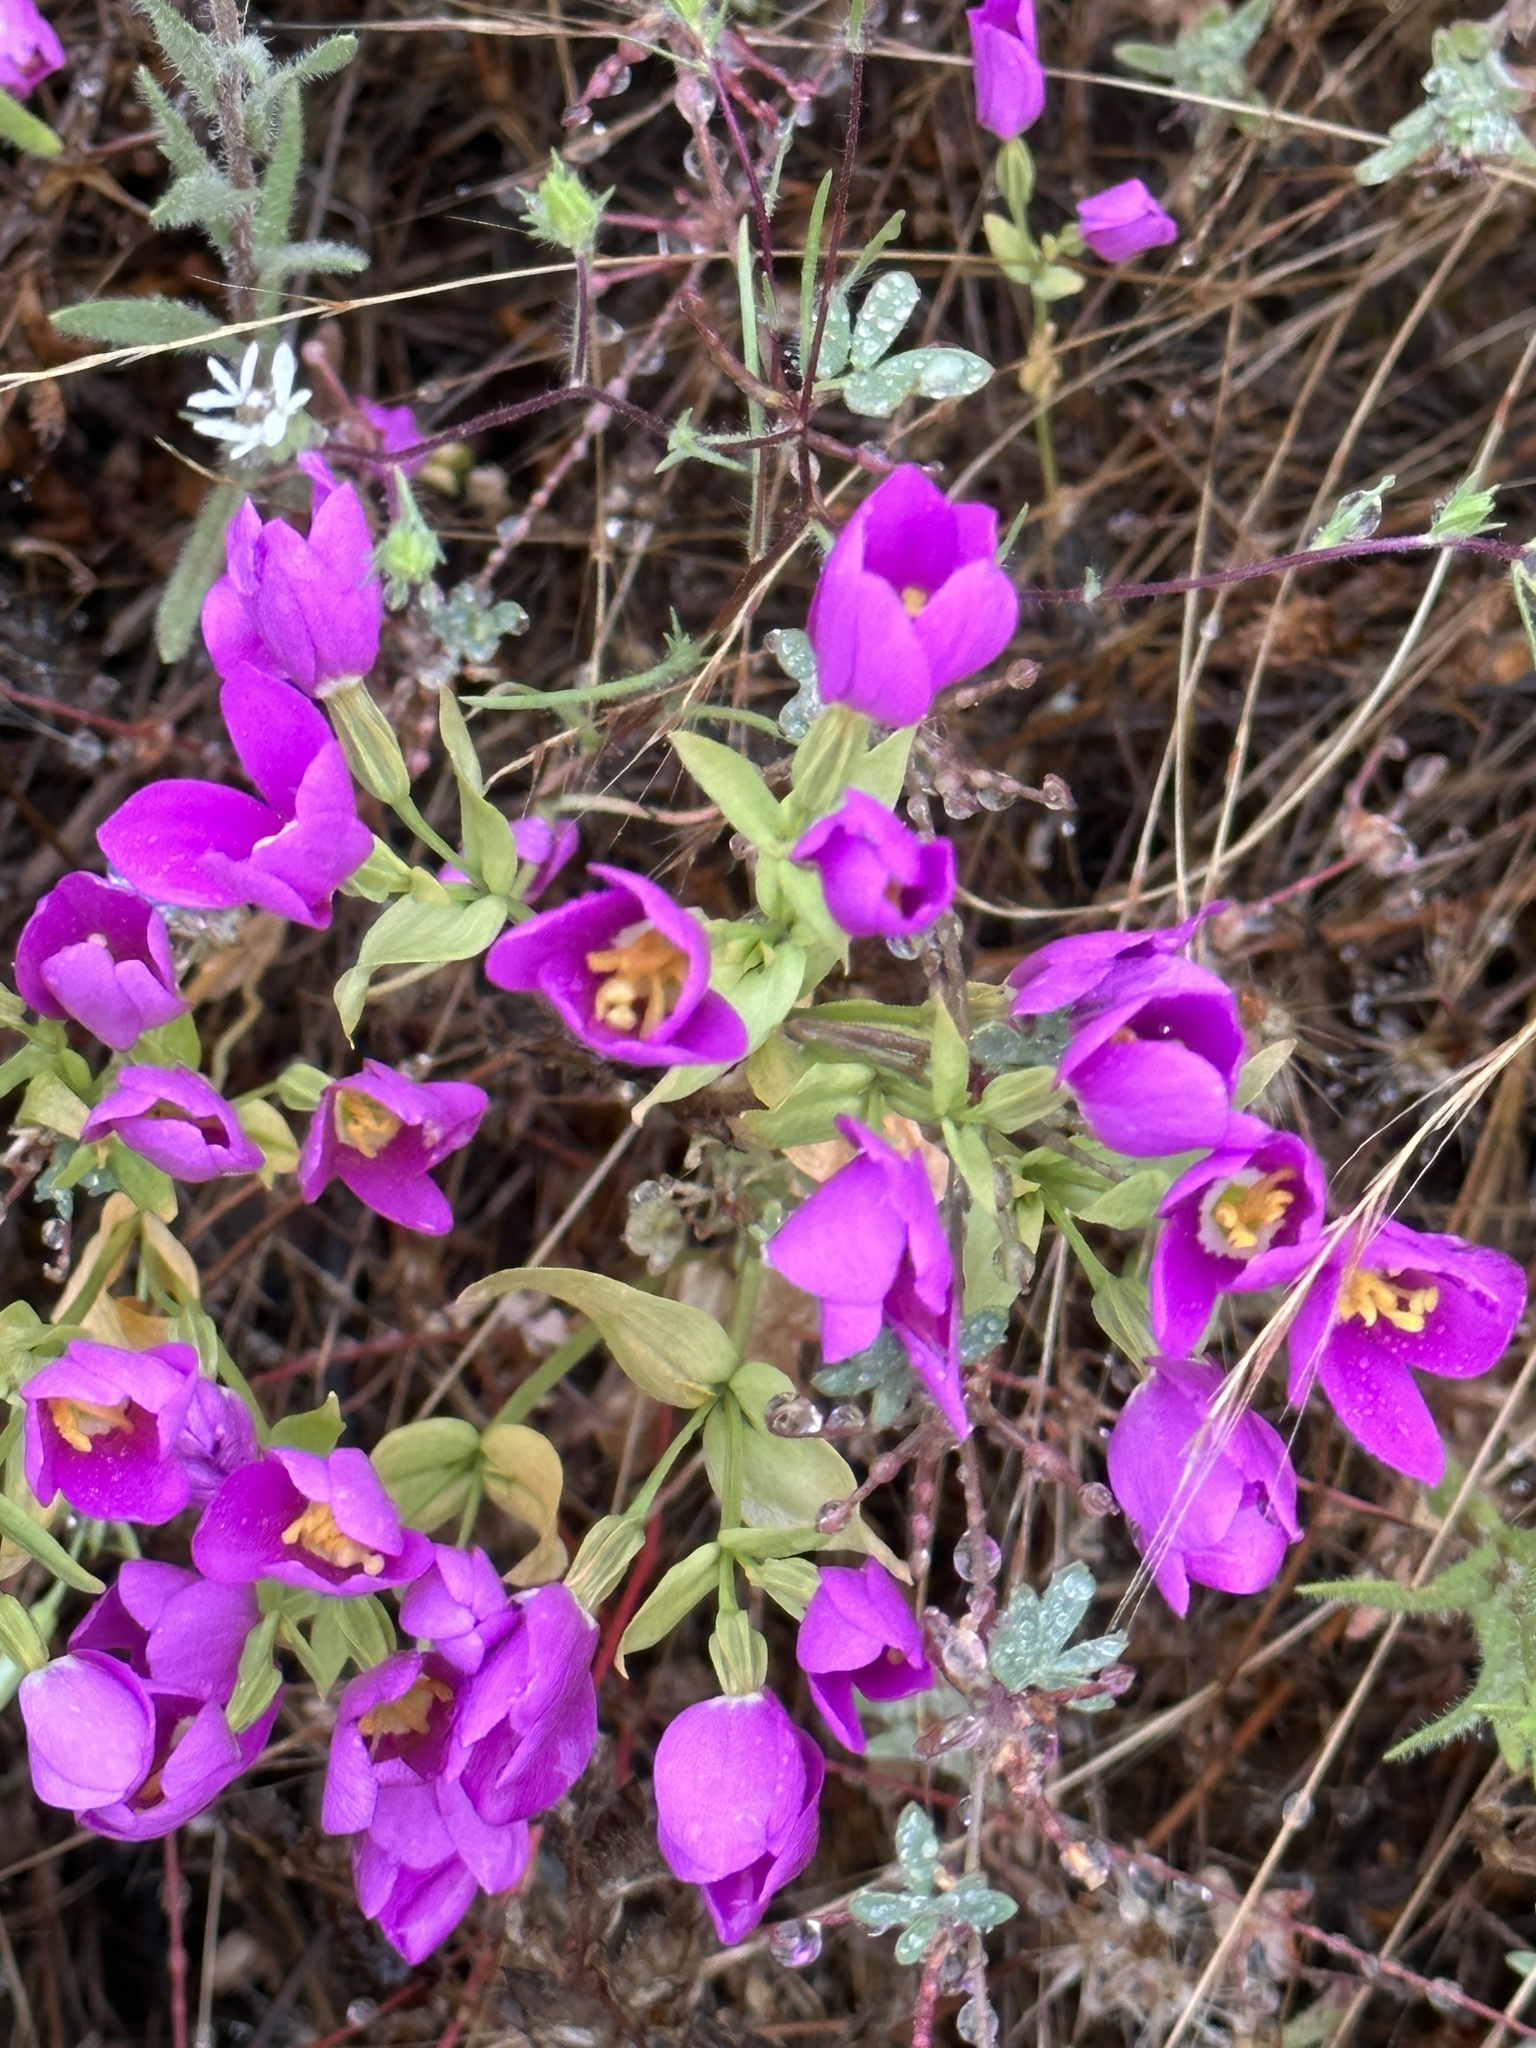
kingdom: Plantae
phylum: Tracheophyta
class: Magnoliopsida
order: Gentianales
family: Gentianaceae
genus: Zeltnera
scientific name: Zeltnera venusta
